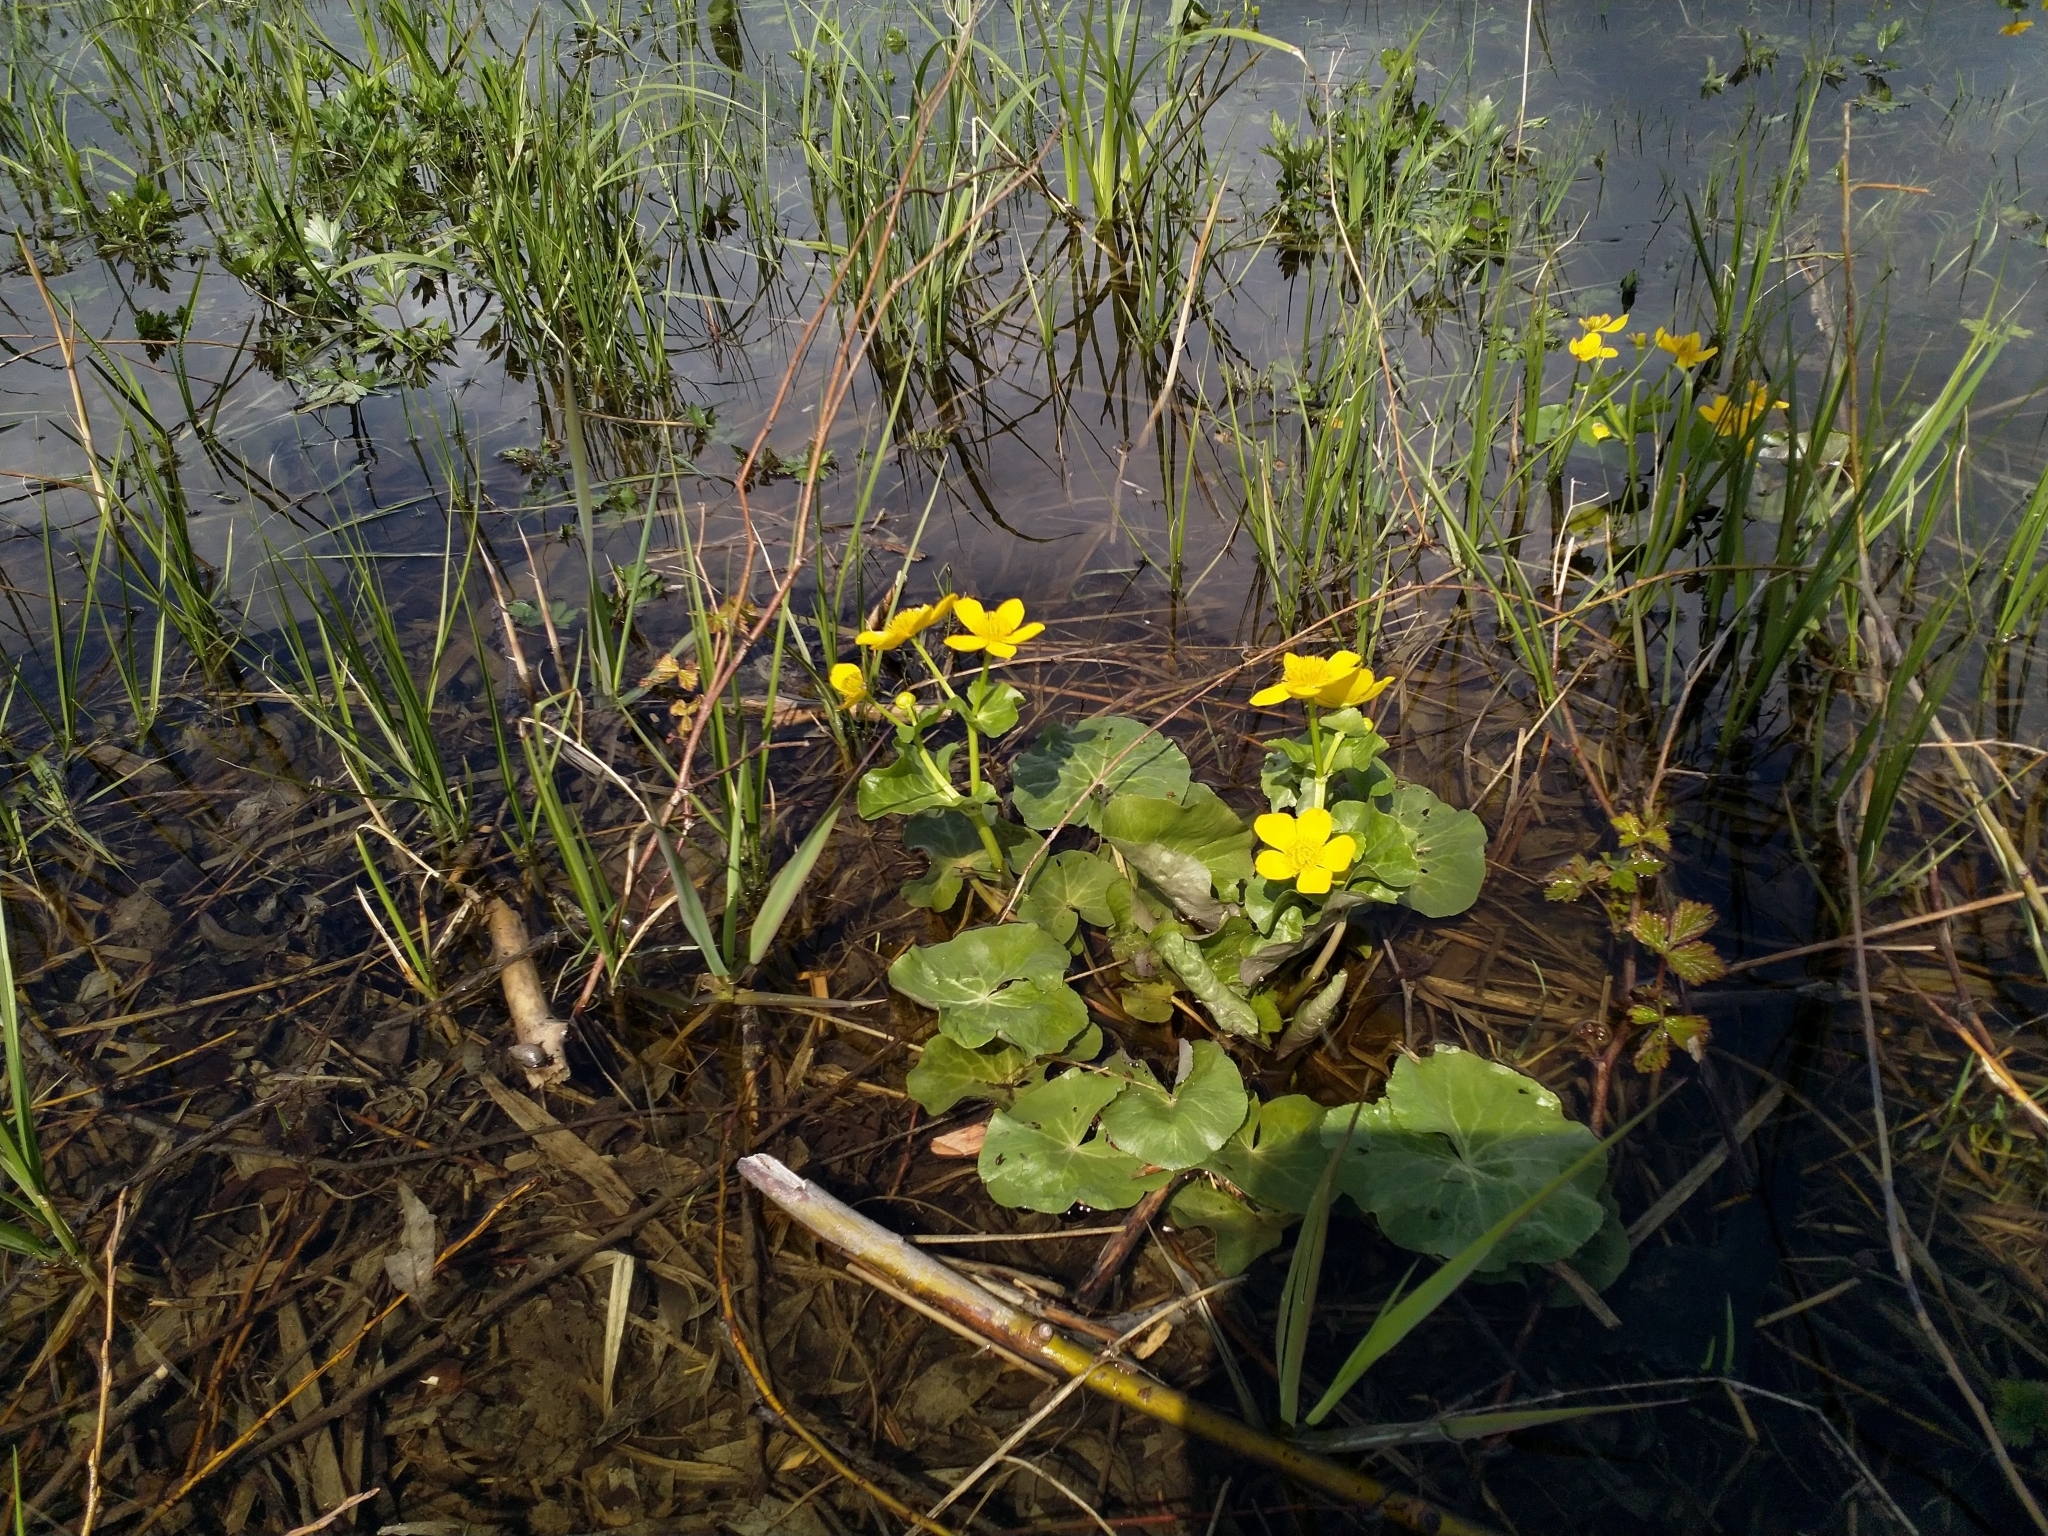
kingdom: Plantae
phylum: Tracheophyta
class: Magnoliopsida
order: Ranunculales
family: Ranunculaceae
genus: Caltha
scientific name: Caltha palustris
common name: Marsh marigold
